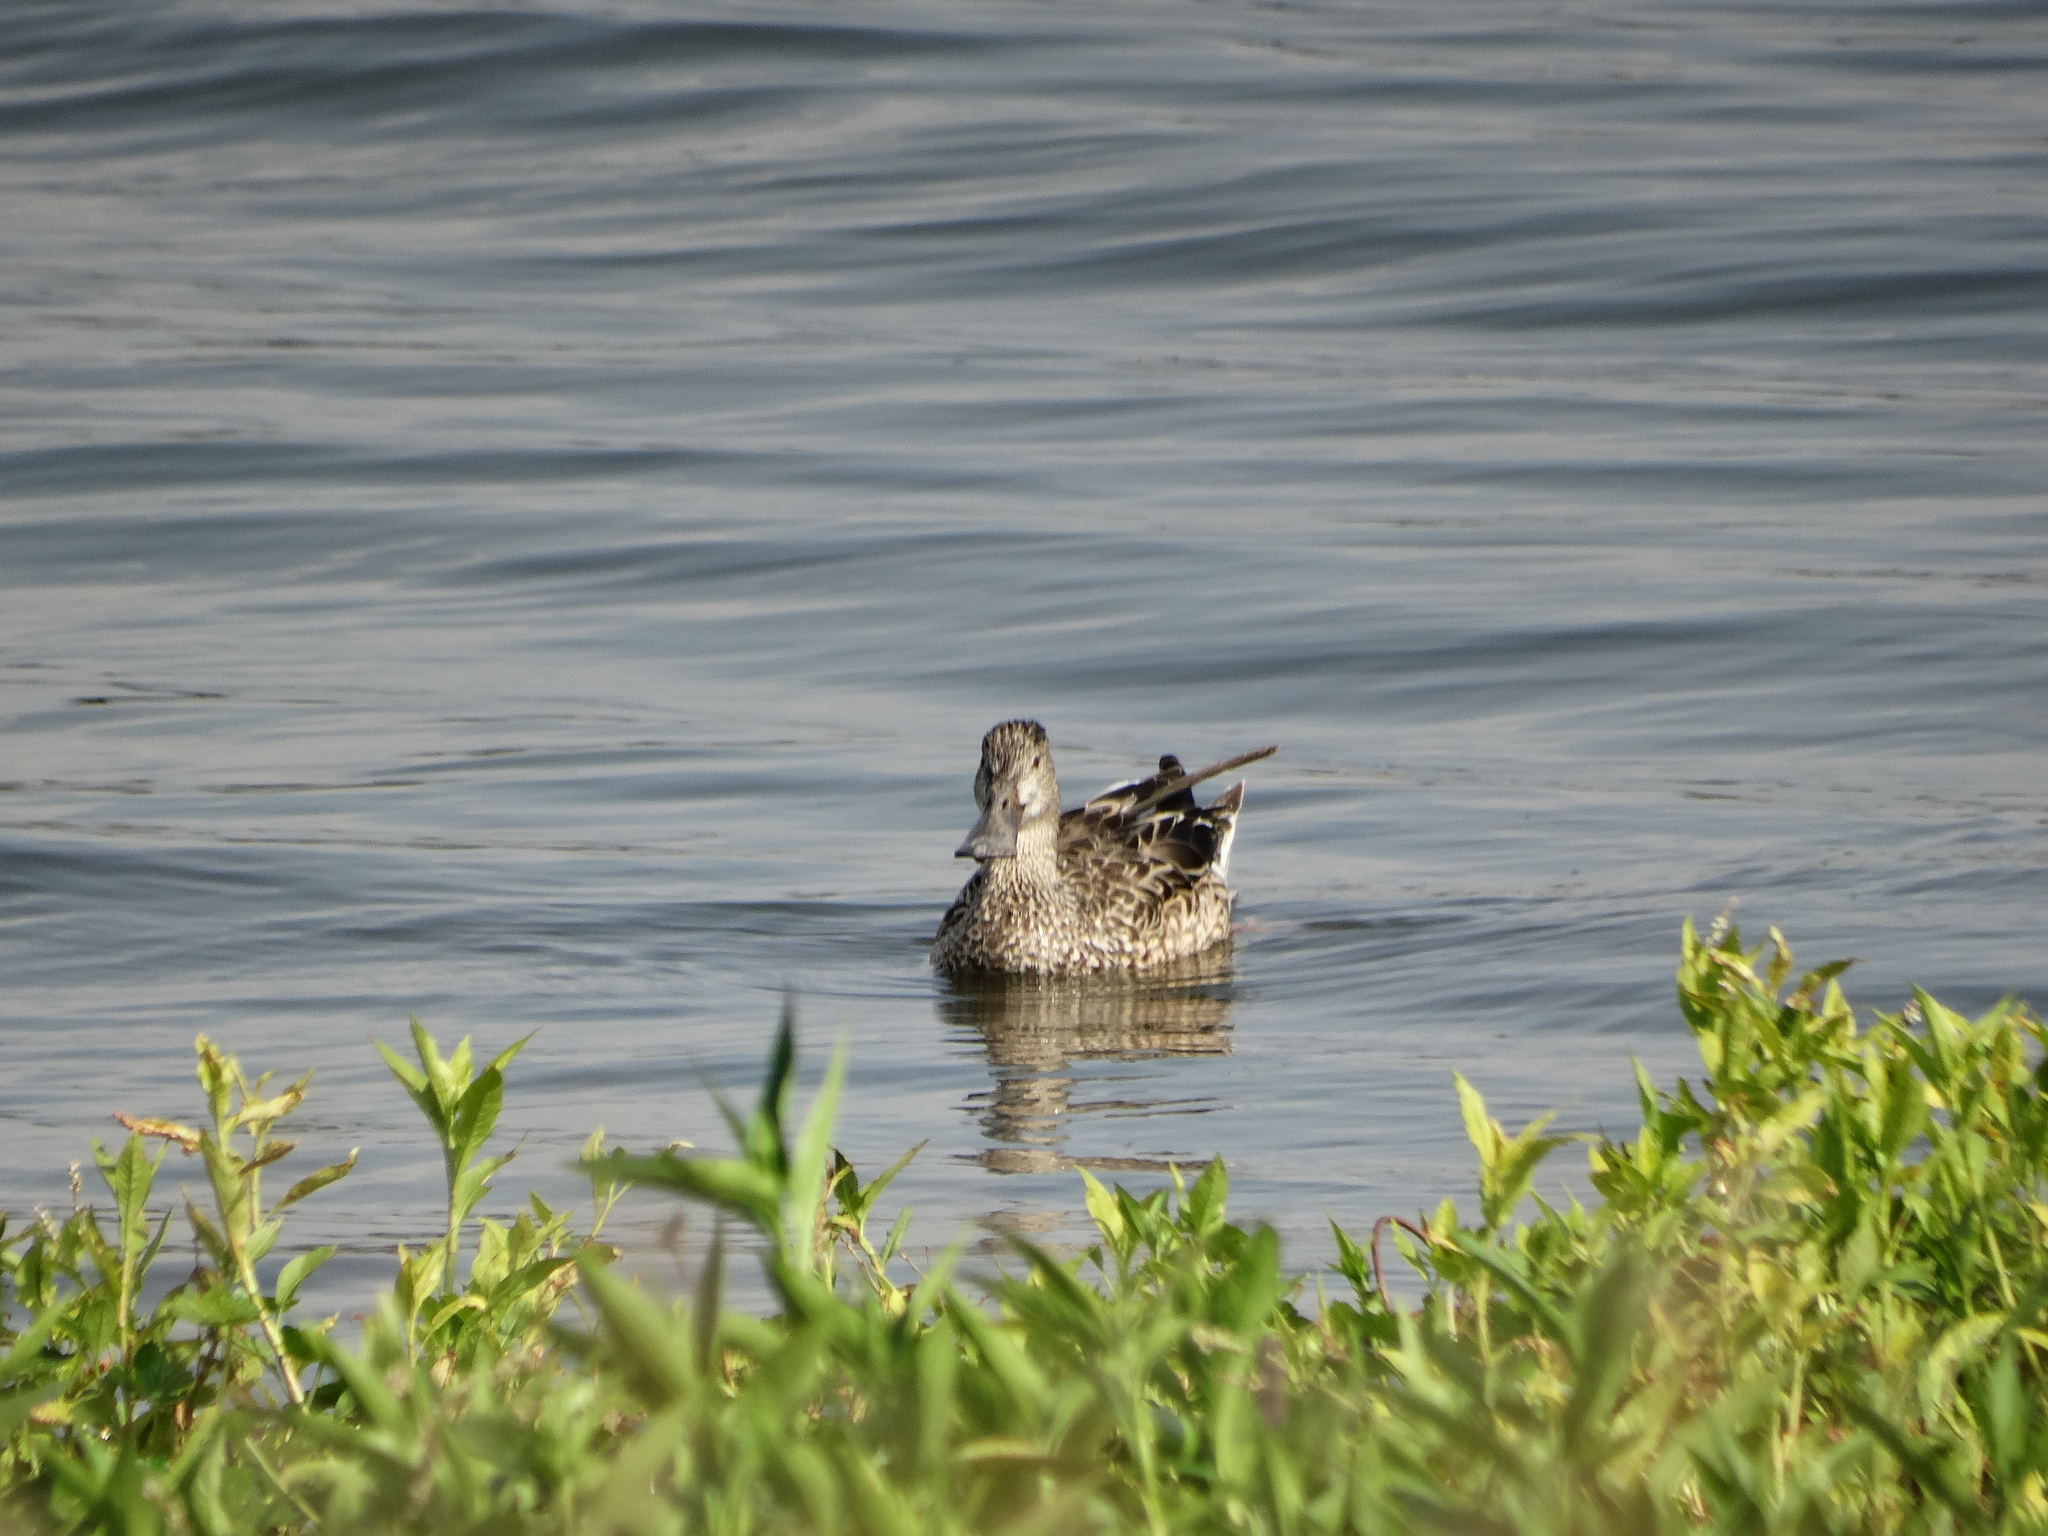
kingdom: Animalia
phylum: Chordata
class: Aves
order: Anseriformes
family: Anatidae
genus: Spatula
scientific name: Spatula clypeata
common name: Northern shoveler
